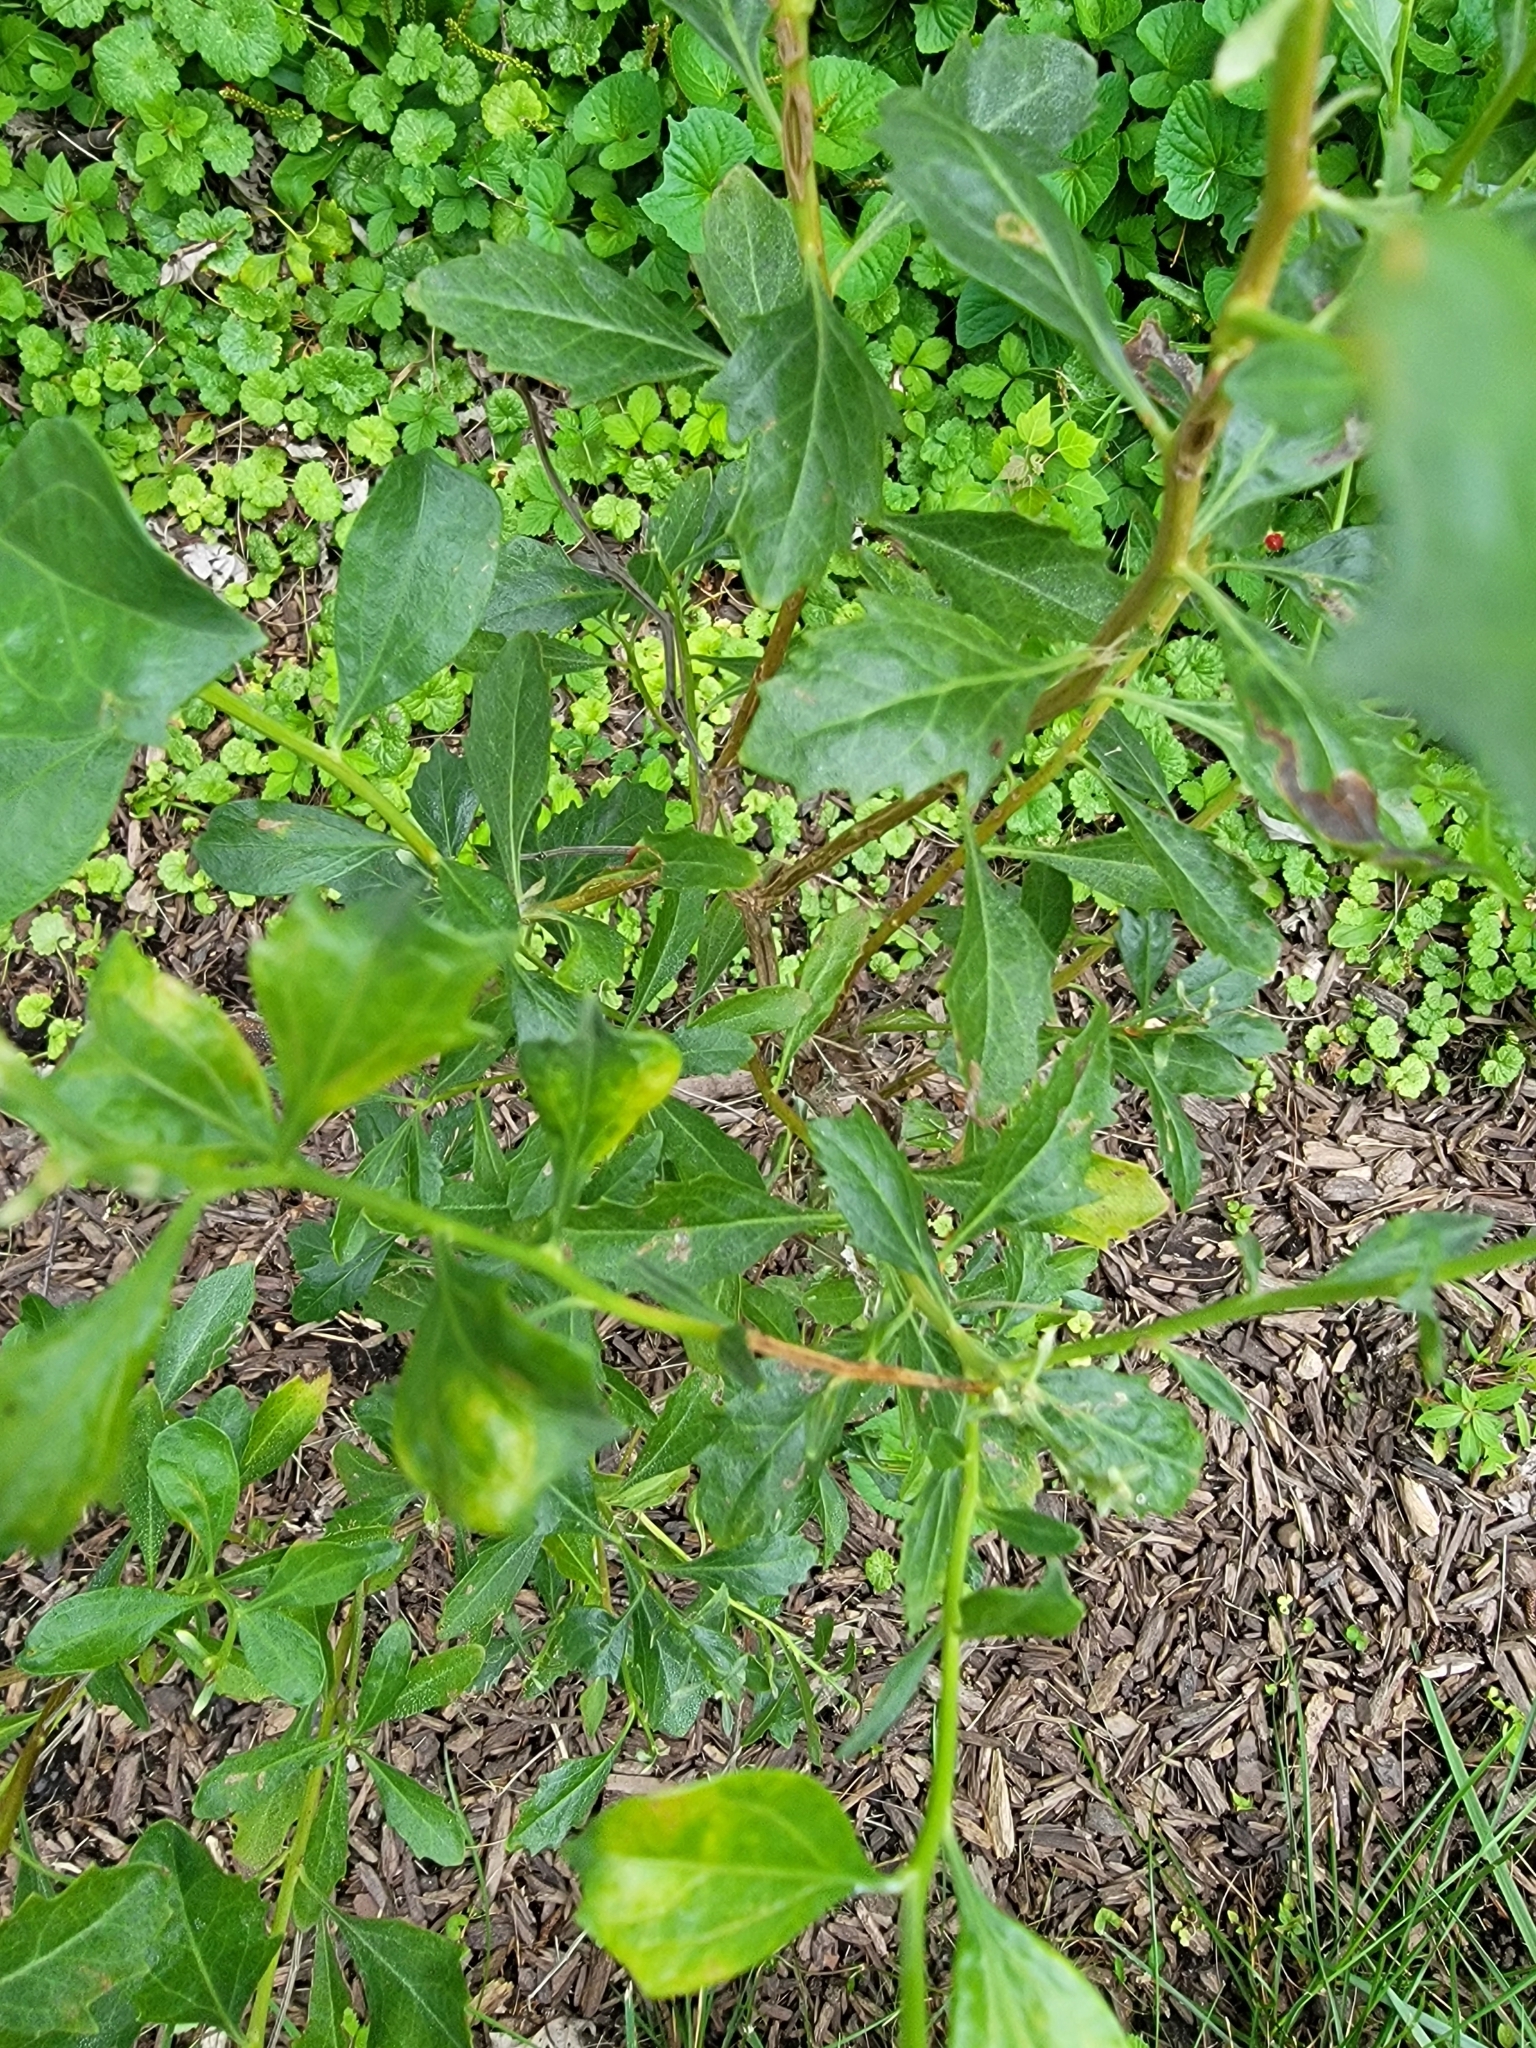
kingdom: Plantae
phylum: Tracheophyta
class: Magnoliopsida
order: Asterales
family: Asteraceae
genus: Baccharis
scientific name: Baccharis halimifolia
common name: Eastern baccharis
